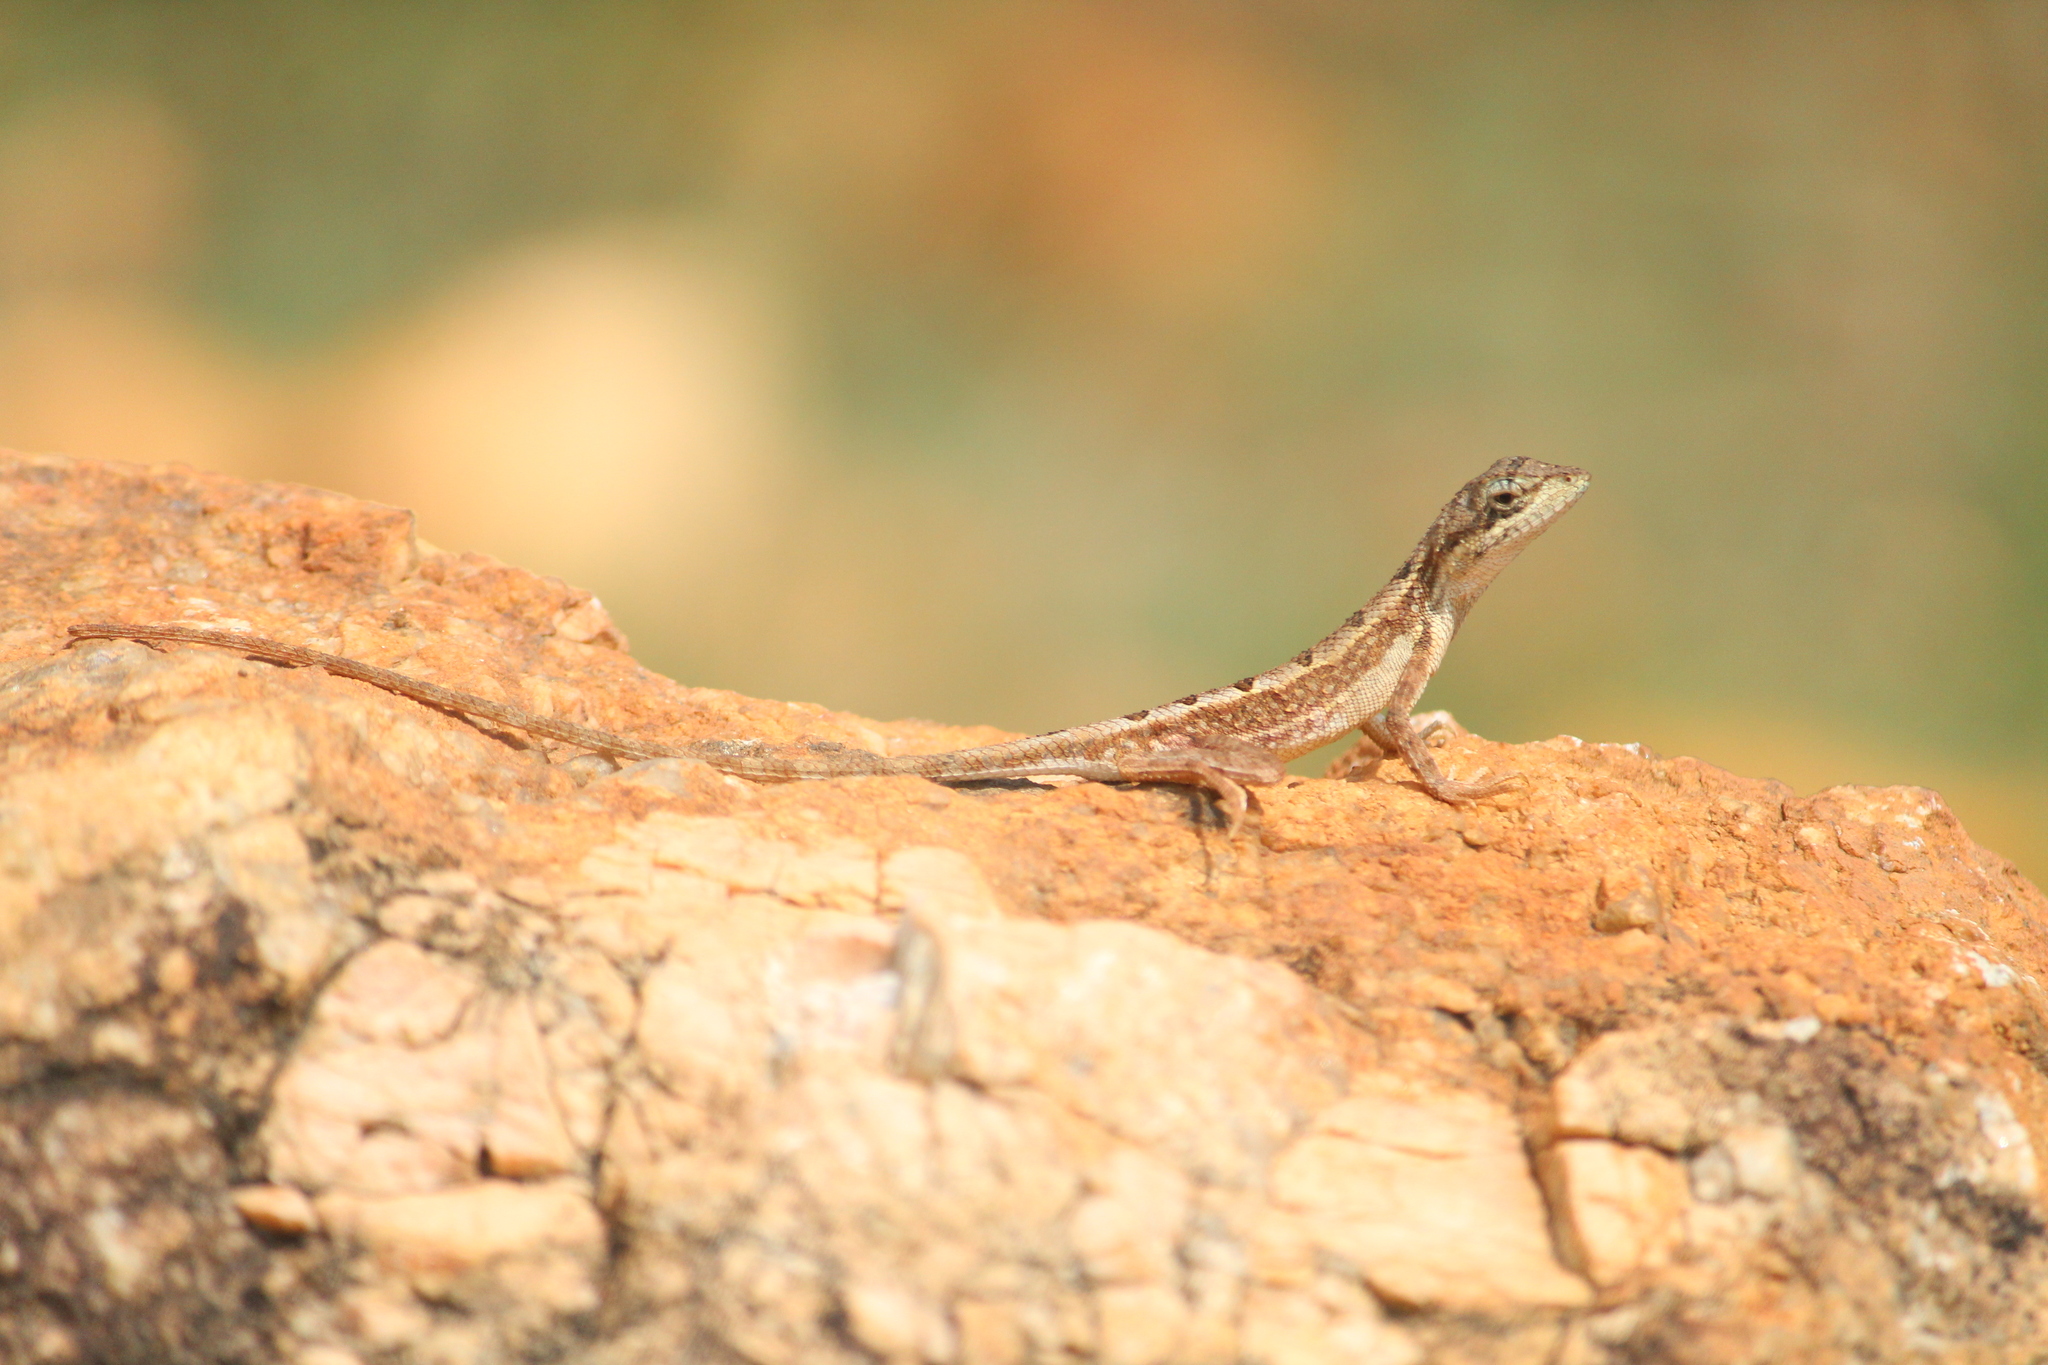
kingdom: Animalia
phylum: Chordata
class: Squamata
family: Agamidae
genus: Sitana
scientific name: Sitana ponticeriana
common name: Pondichéry fan throated lizard
